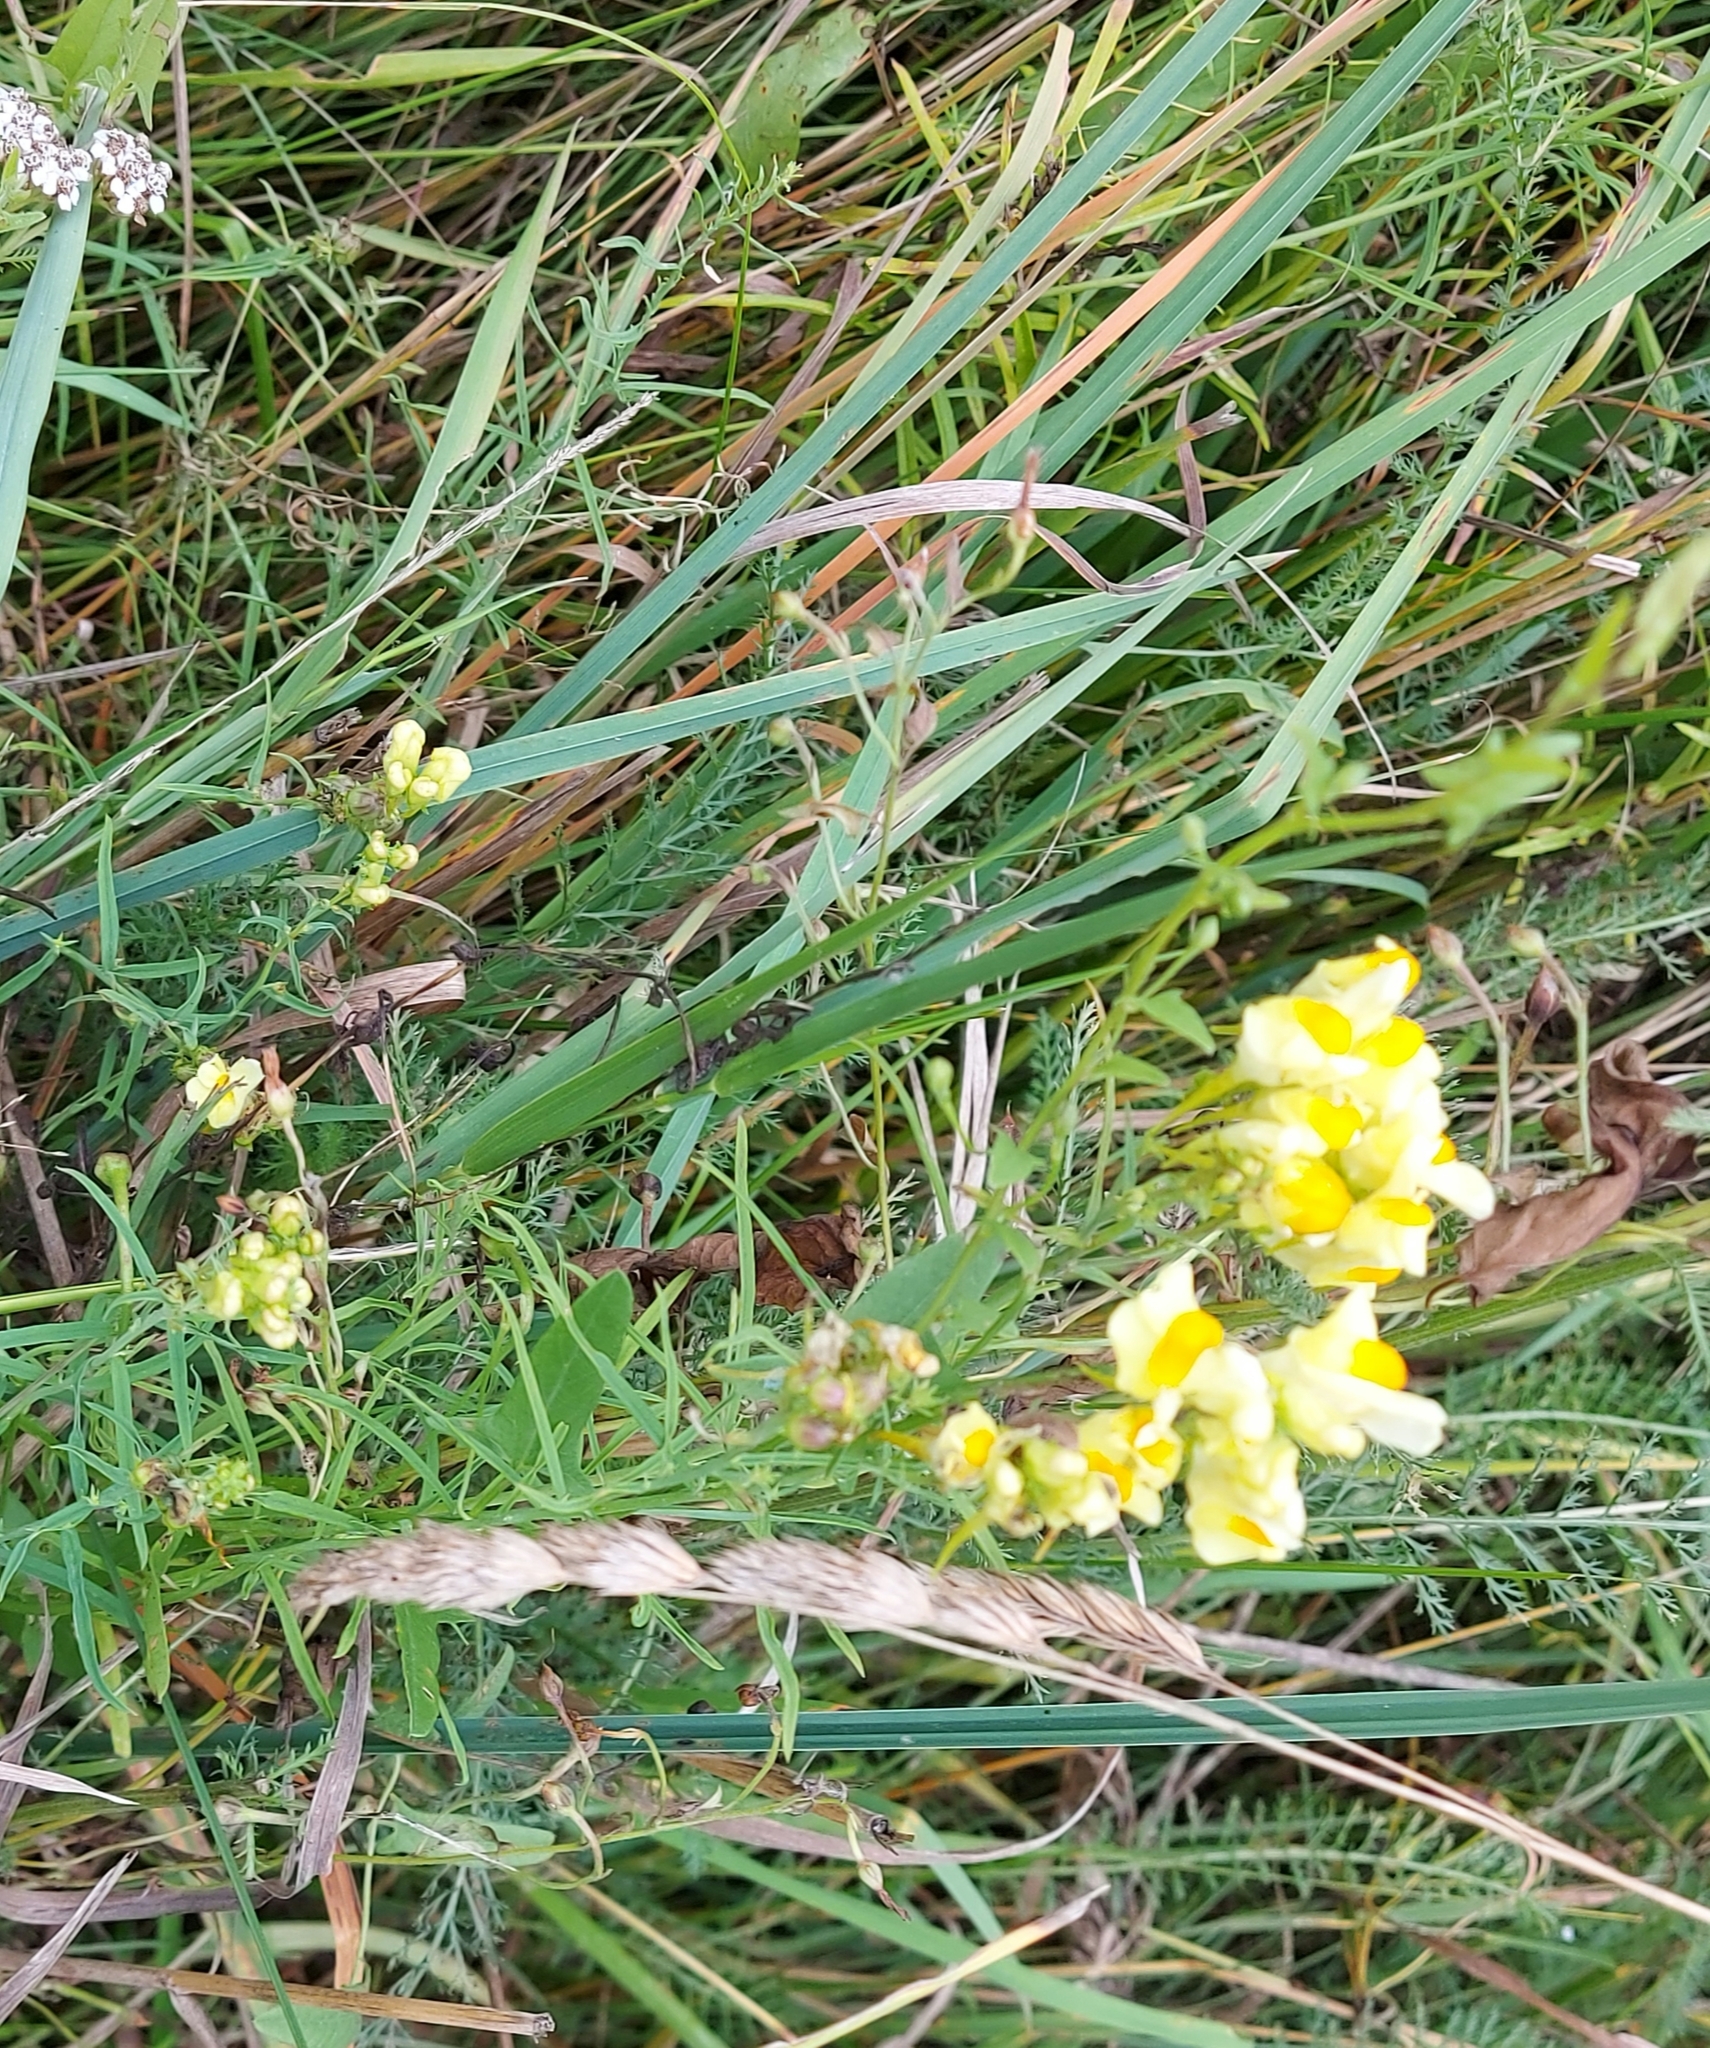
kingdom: Plantae
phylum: Tracheophyta
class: Magnoliopsida
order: Lamiales
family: Plantaginaceae
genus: Linaria
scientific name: Linaria vulgaris
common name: Butter and eggs
